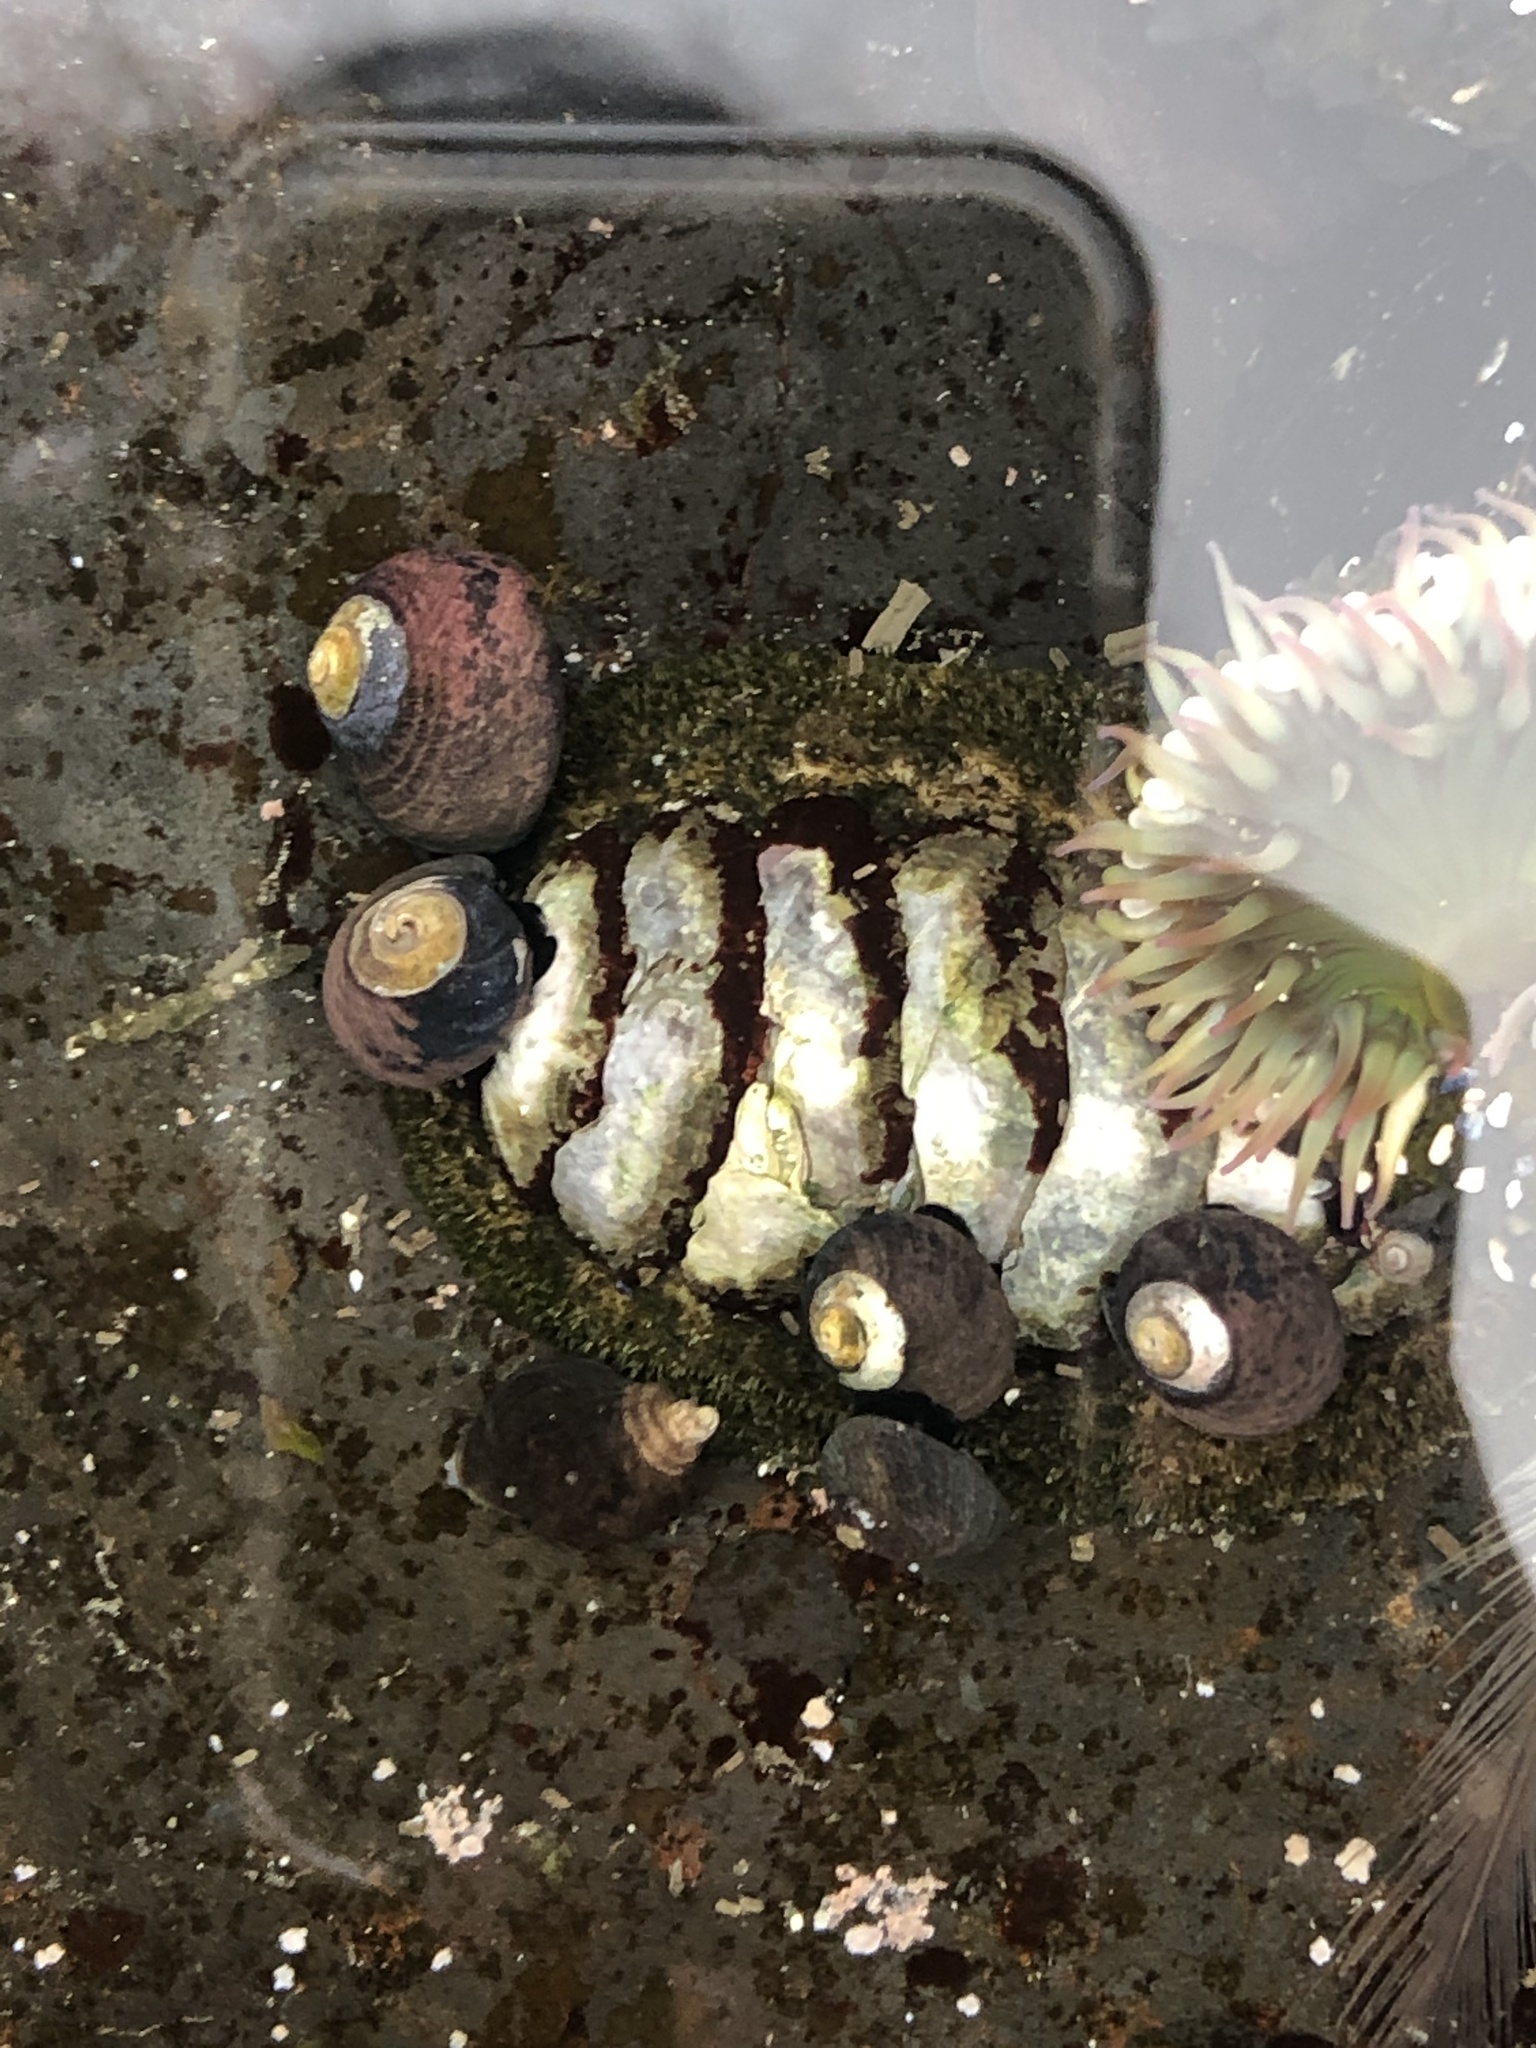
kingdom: Animalia
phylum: Mollusca
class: Polyplacophora
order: Chitonida
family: Tonicellidae
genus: Nuttallina
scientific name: Nuttallina californica
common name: California nuttall chiton
